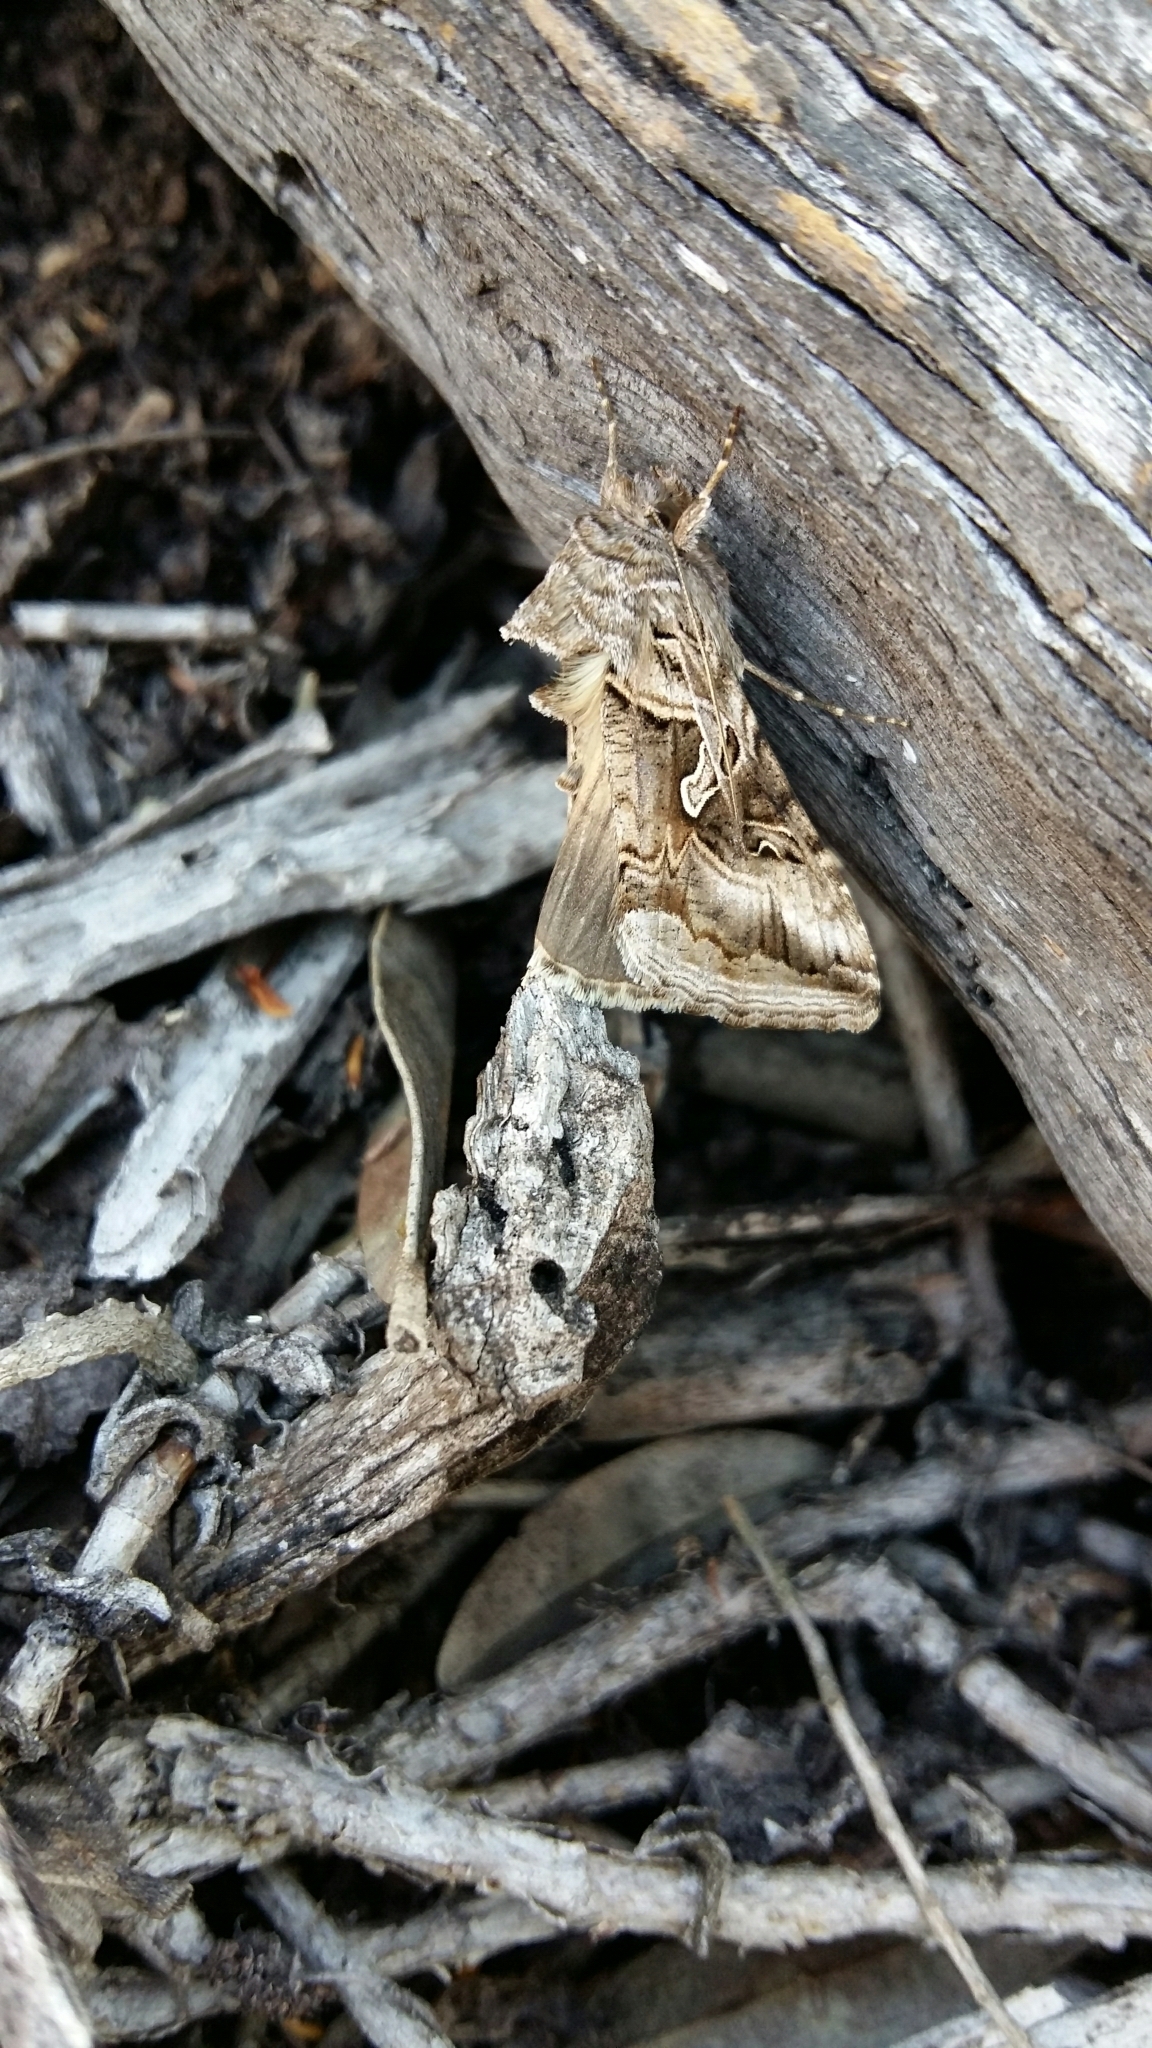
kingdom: Animalia
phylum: Arthropoda
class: Insecta
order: Lepidoptera
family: Noctuidae
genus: Cornutiplusia
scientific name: Cornutiplusia circumflexa
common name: Yorkshire y
